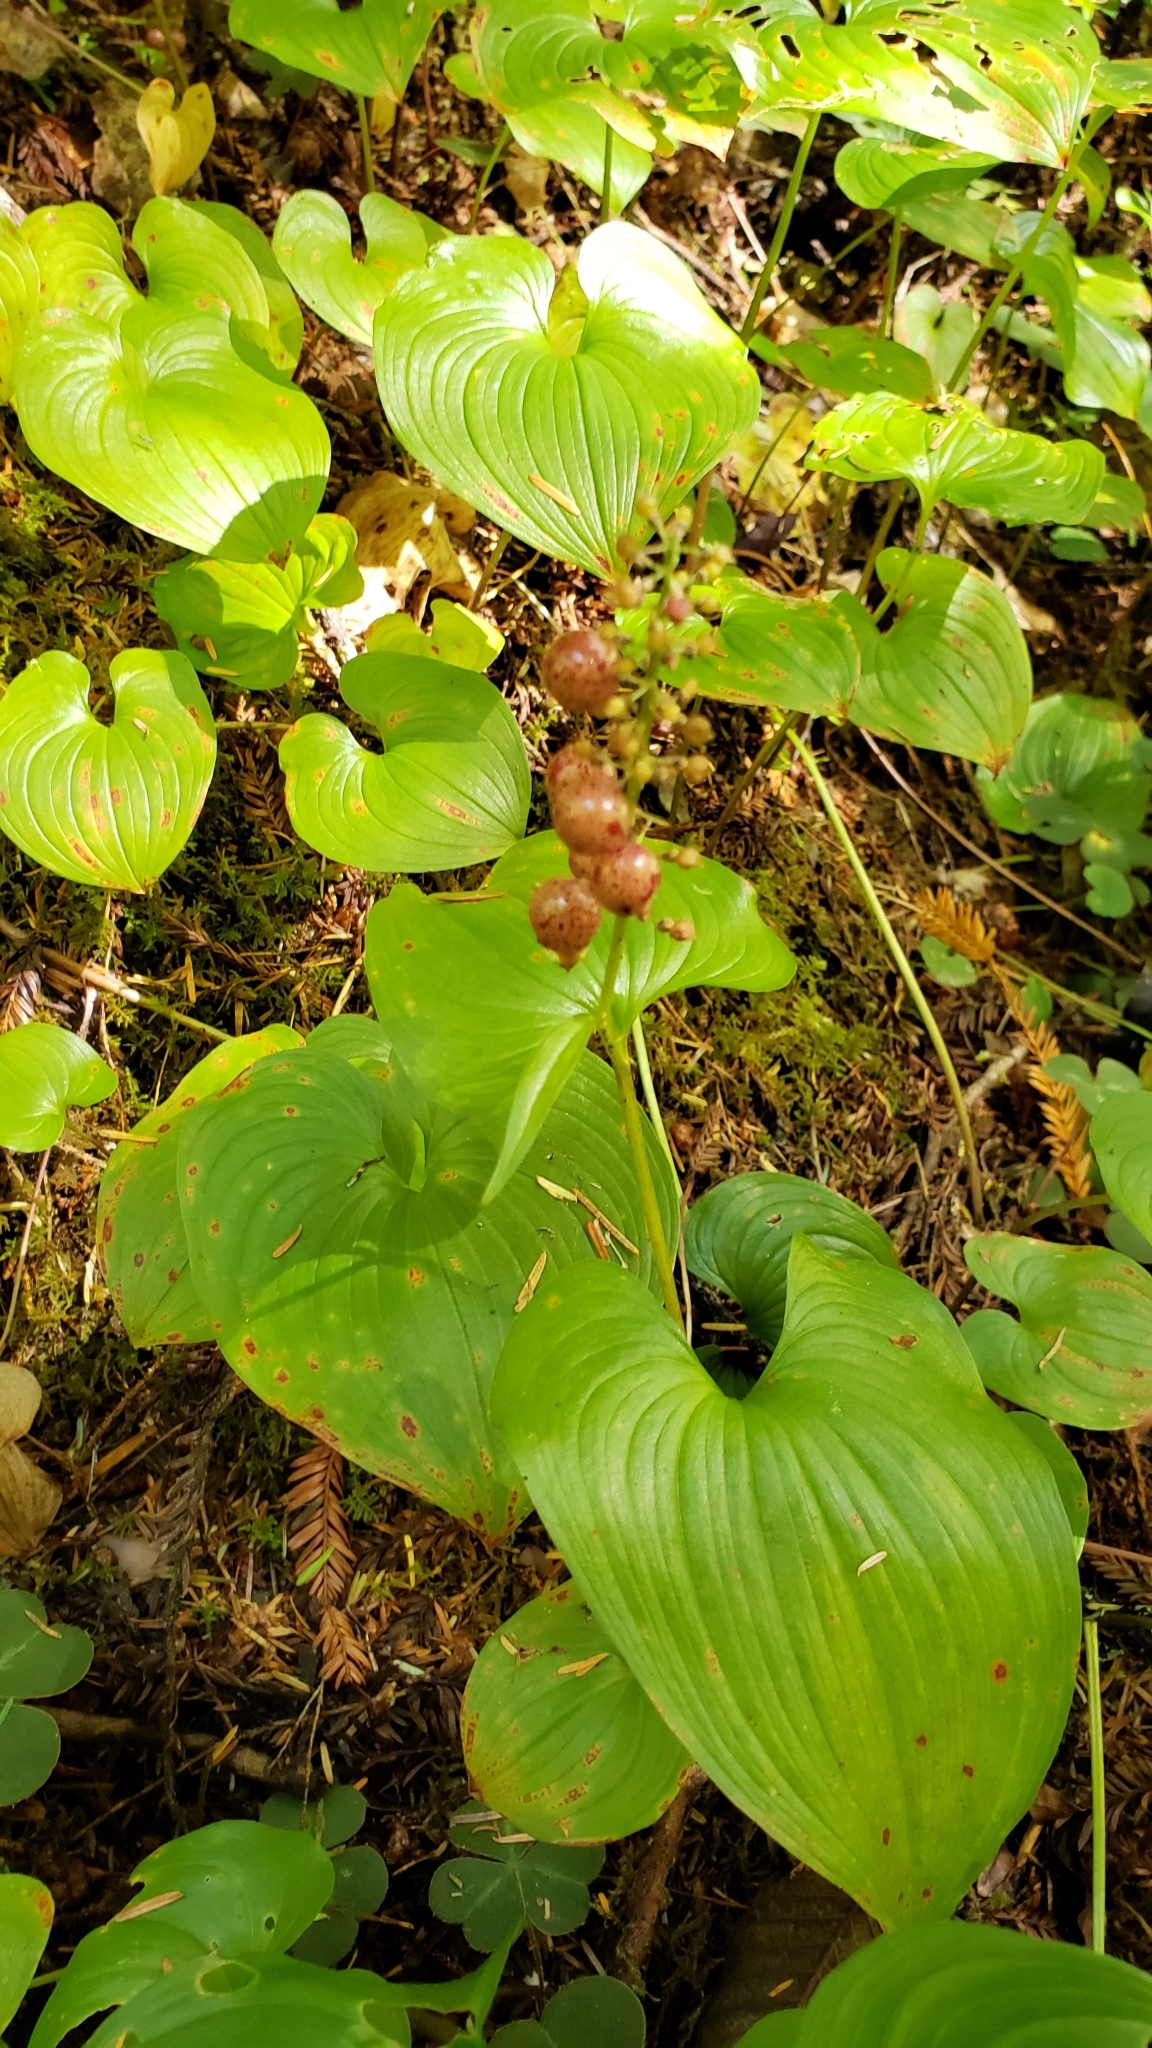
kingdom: Plantae
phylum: Tracheophyta
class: Liliopsida
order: Asparagales
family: Asparagaceae
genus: Maianthemum
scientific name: Maianthemum dilatatum
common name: False lily-of-the-valley
